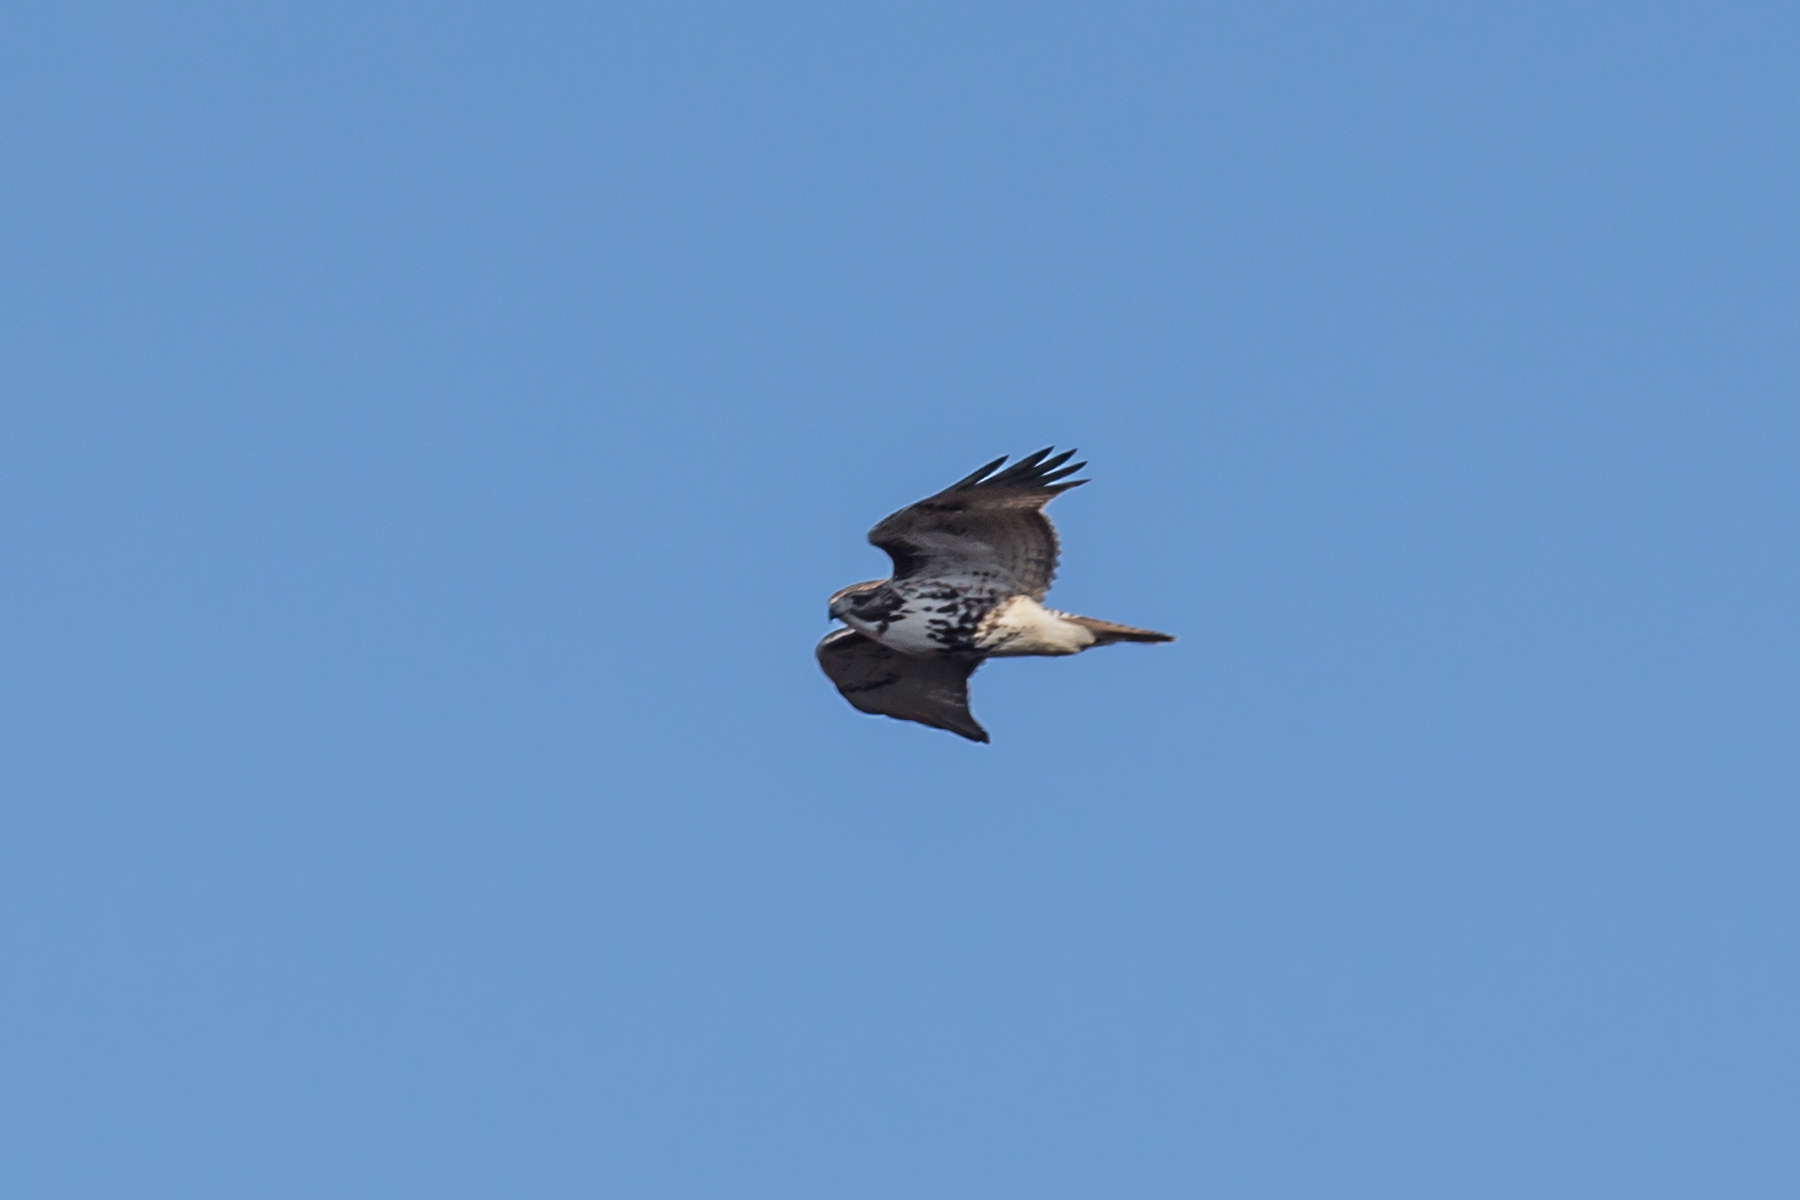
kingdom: Animalia
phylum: Chordata
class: Aves
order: Accipitriformes
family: Accipitridae
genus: Buteo
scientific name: Buteo jamaicensis
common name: Red-tailed hawk
